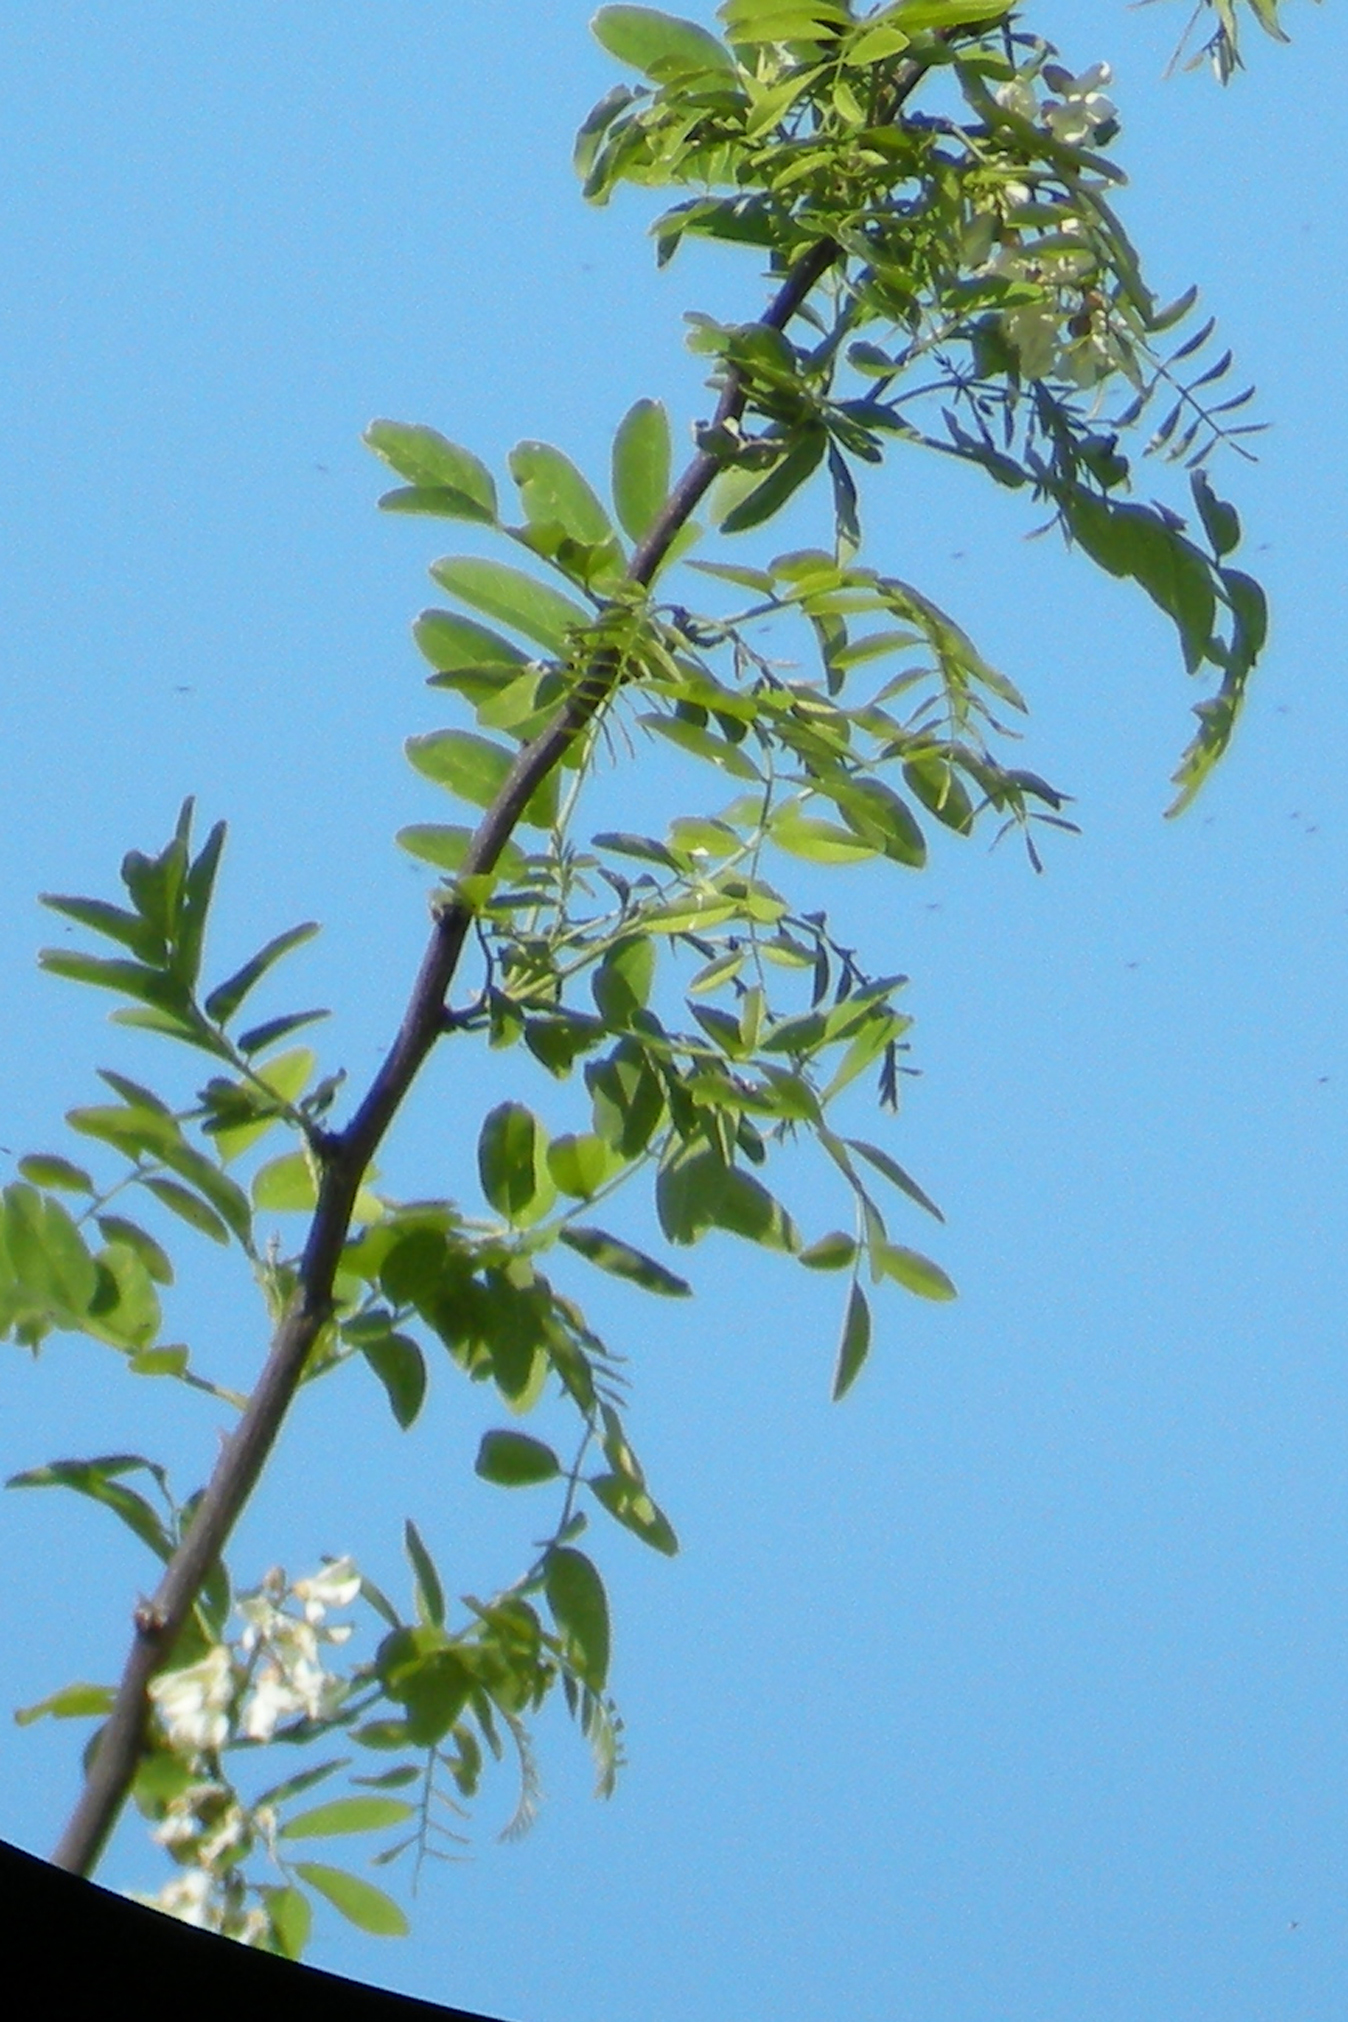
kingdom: Plantae
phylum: Tracheophyta
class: Magnoliopsida
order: Fabales
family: Fabaceae
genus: Robinia
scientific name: Robinia pseudoacacia
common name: Black locust
